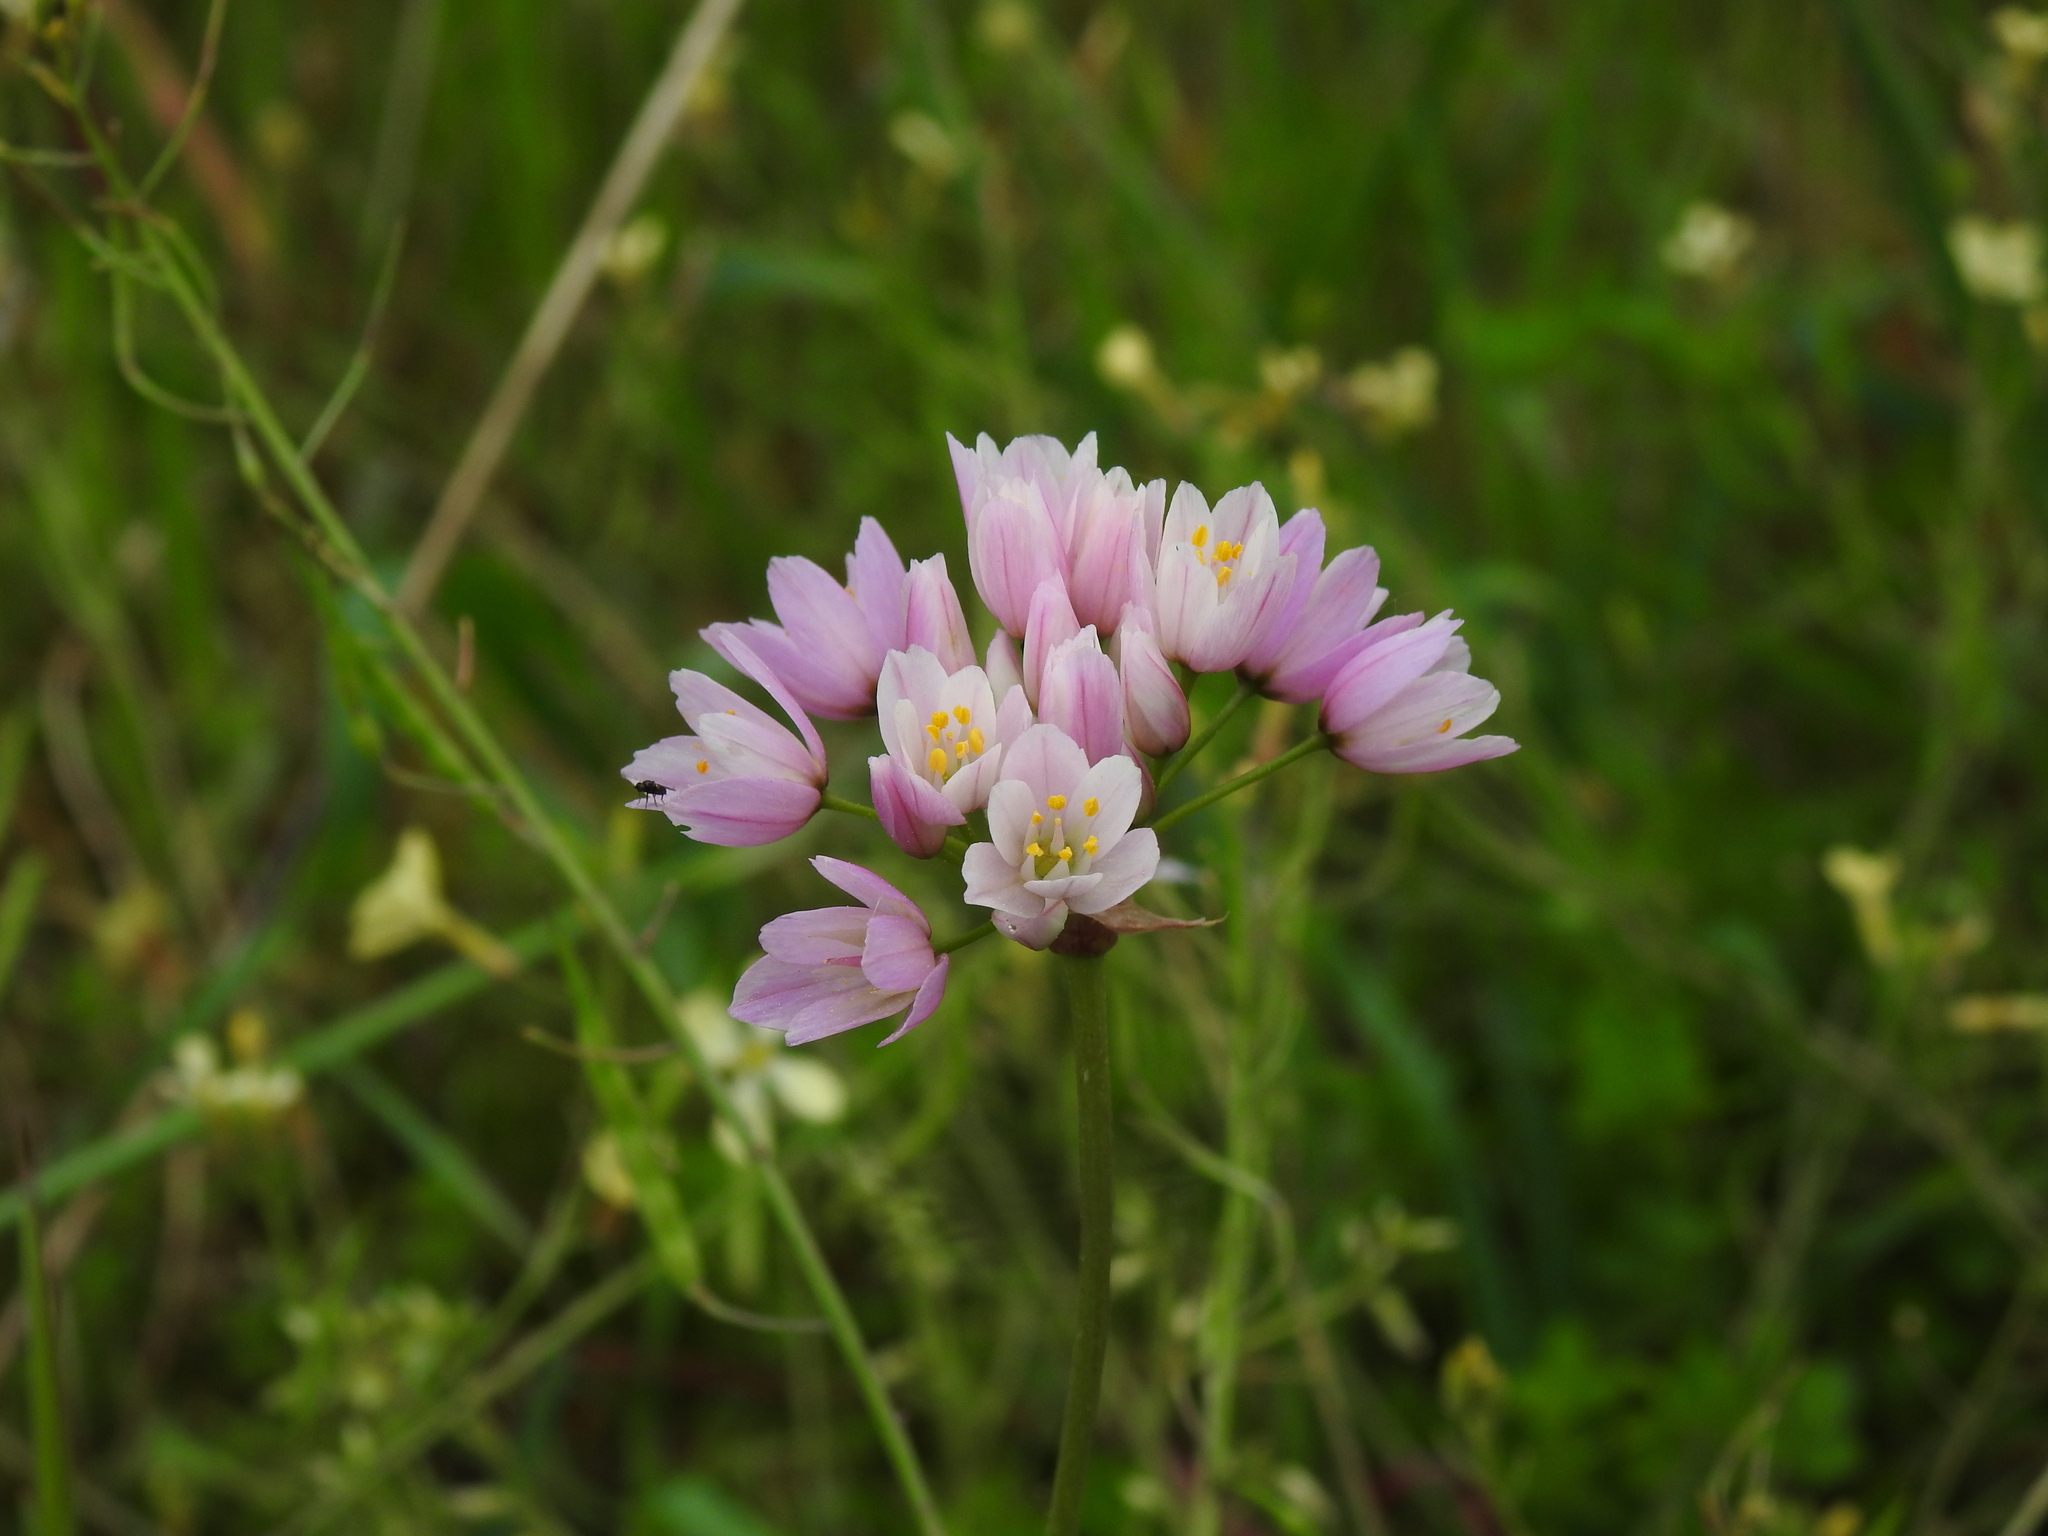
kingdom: Plantae
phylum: Tracheophyta
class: Liliopsida
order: Asparagales
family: Amaryllidaceae
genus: Allium
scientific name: Allium roseum
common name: Rosy garlic
